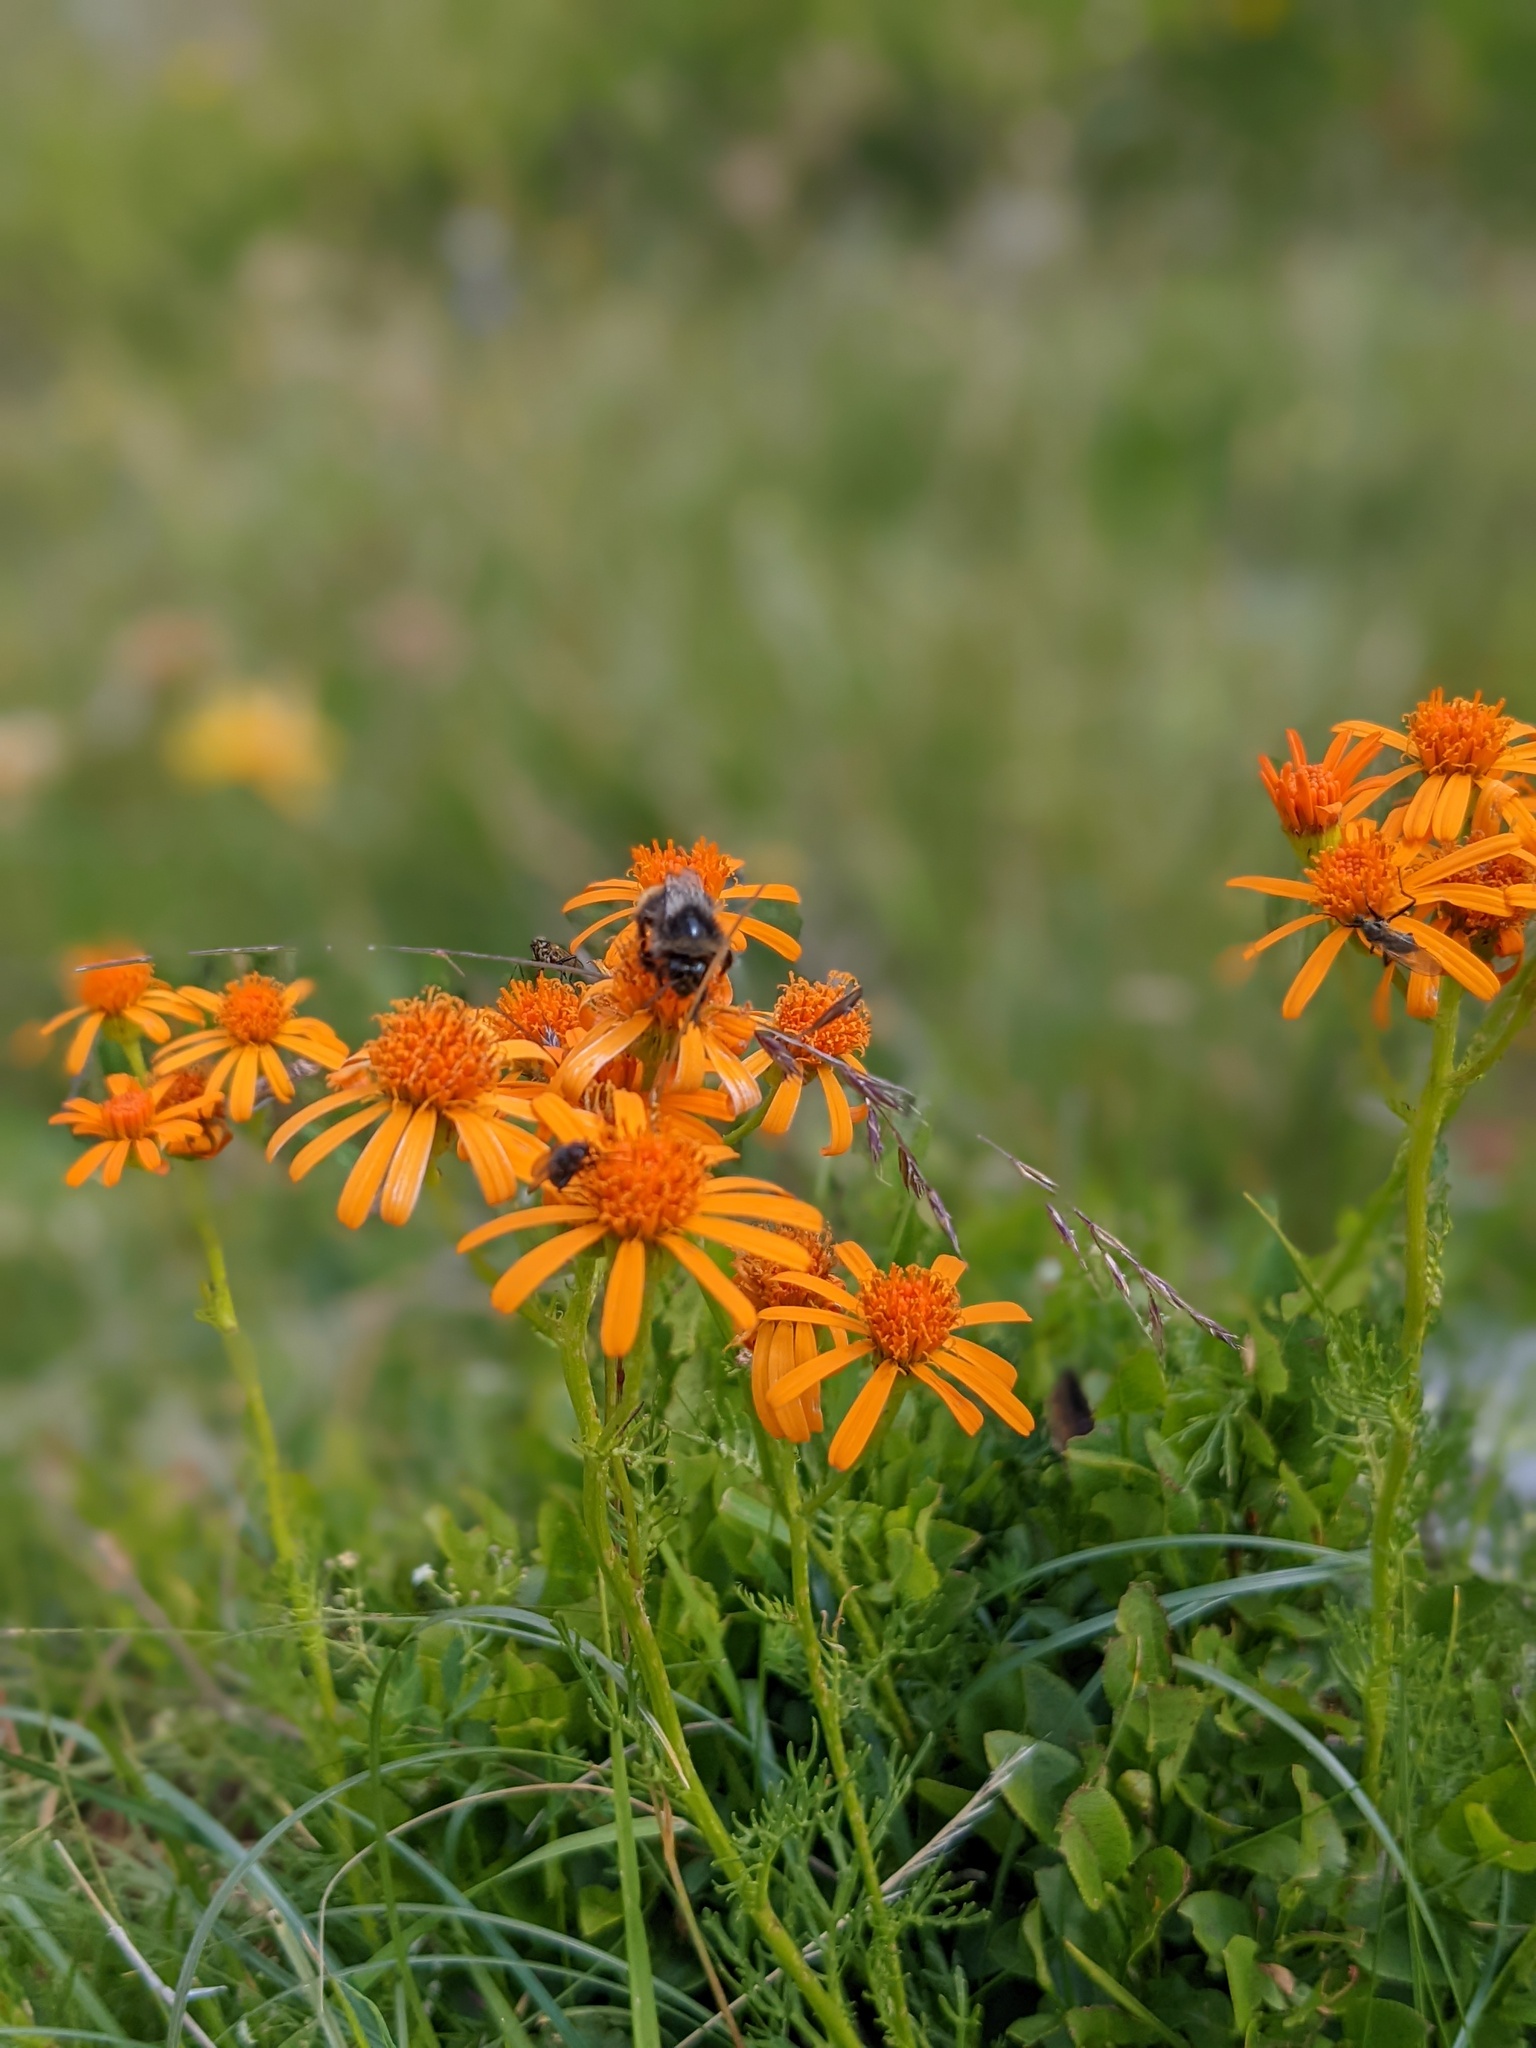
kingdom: Plantae
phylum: Tracheophyta
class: Magnoliopsida
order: Asterales
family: Asteraceae
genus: Jacobaea
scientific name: Jacobaea abrotanifolia
